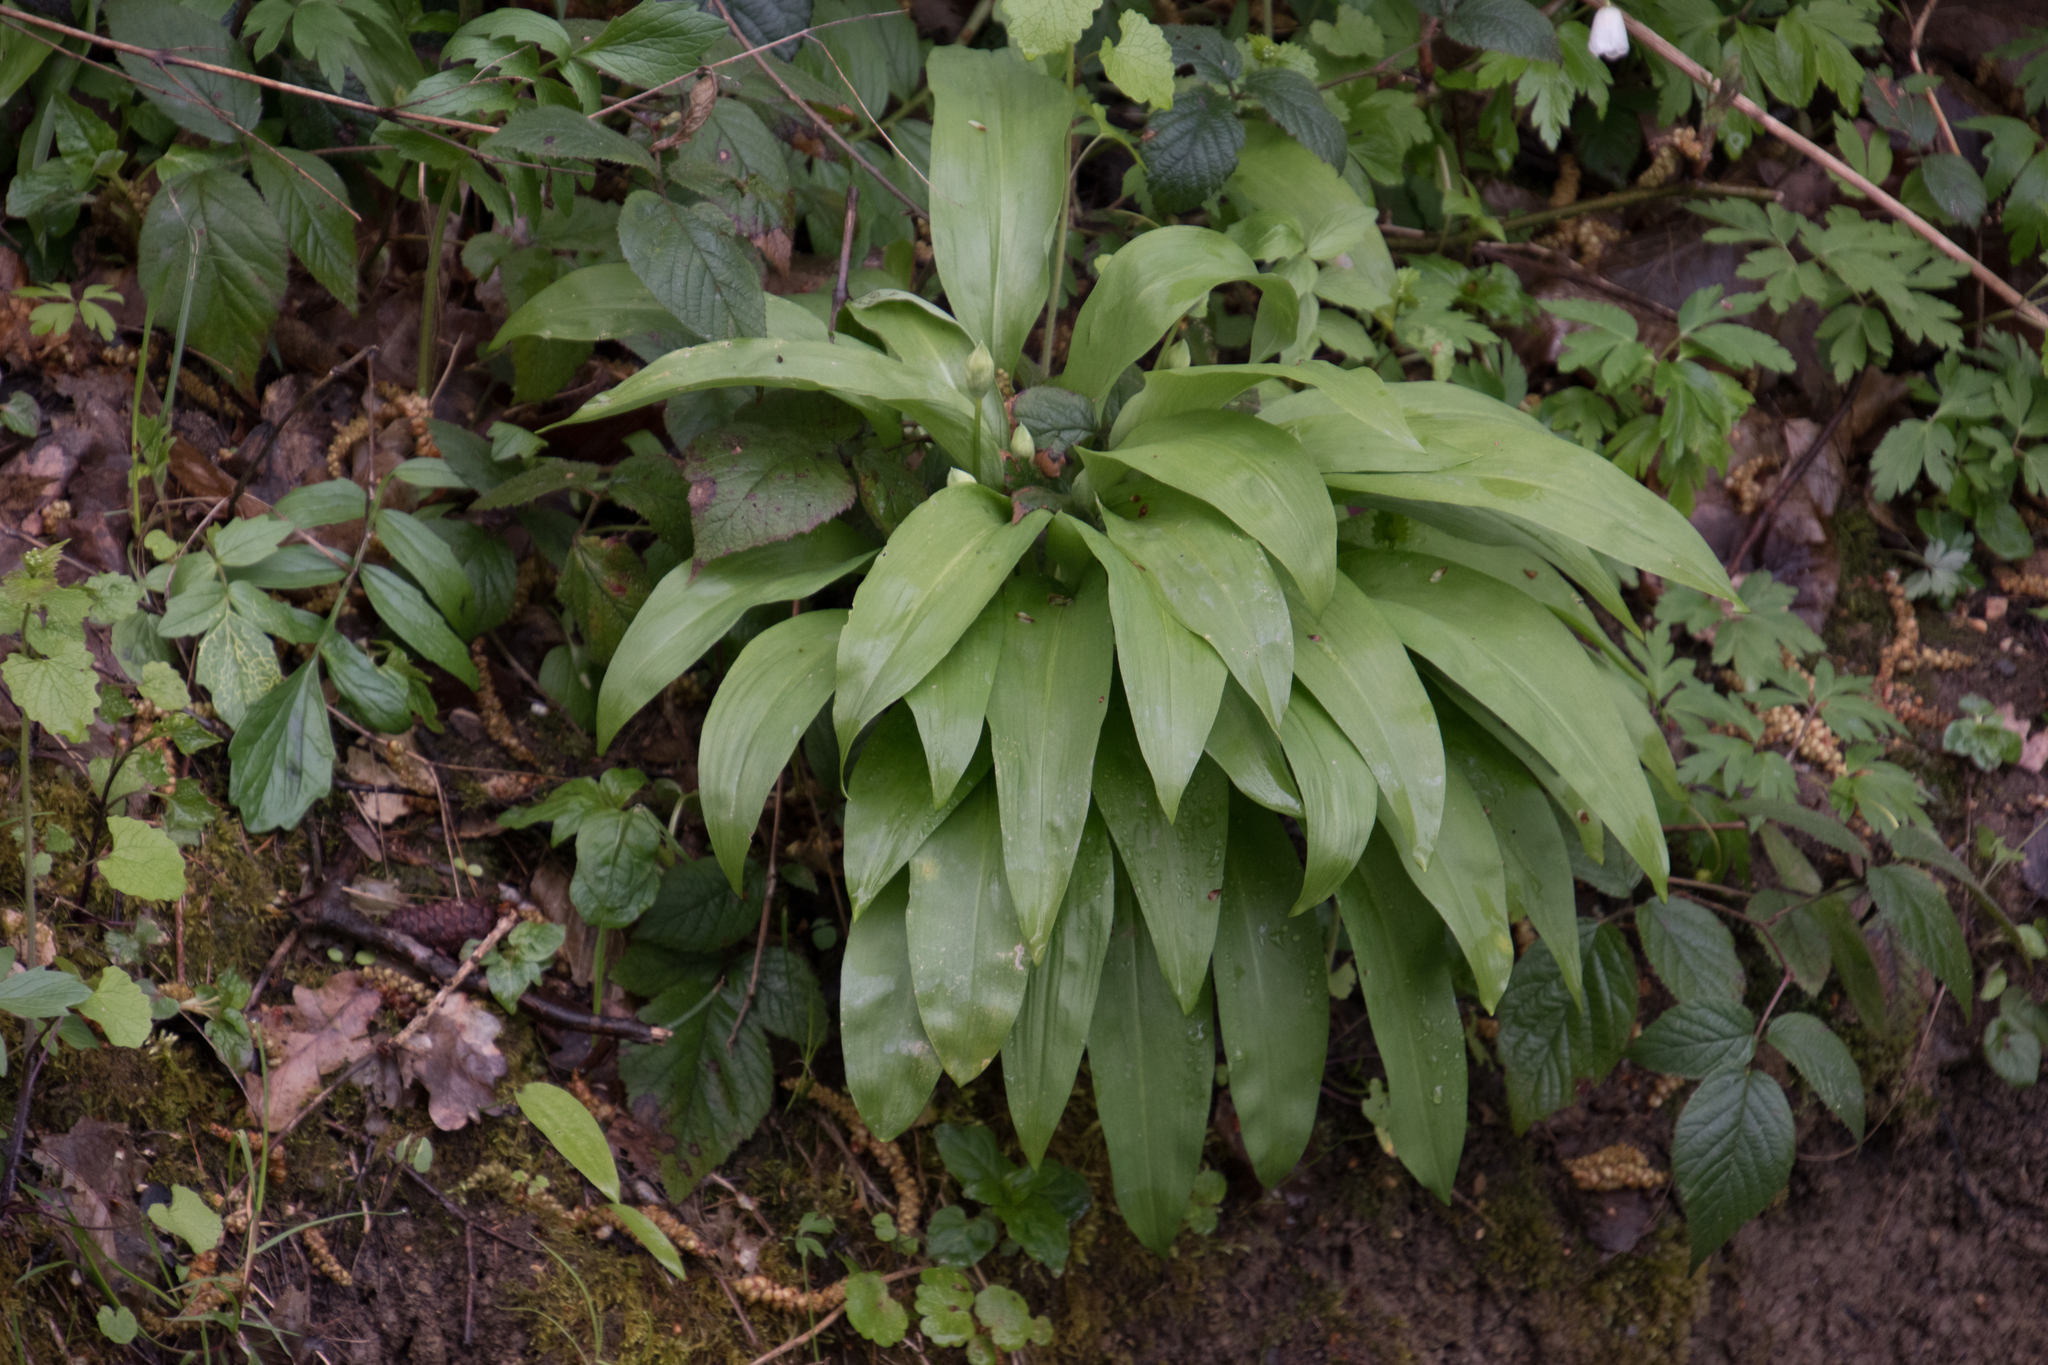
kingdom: Plantae
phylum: Tracheophyta
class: Liliopsida
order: Asparagales
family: Amaryllidaceae
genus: Allium
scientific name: Allium ursinum
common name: Ramsons
